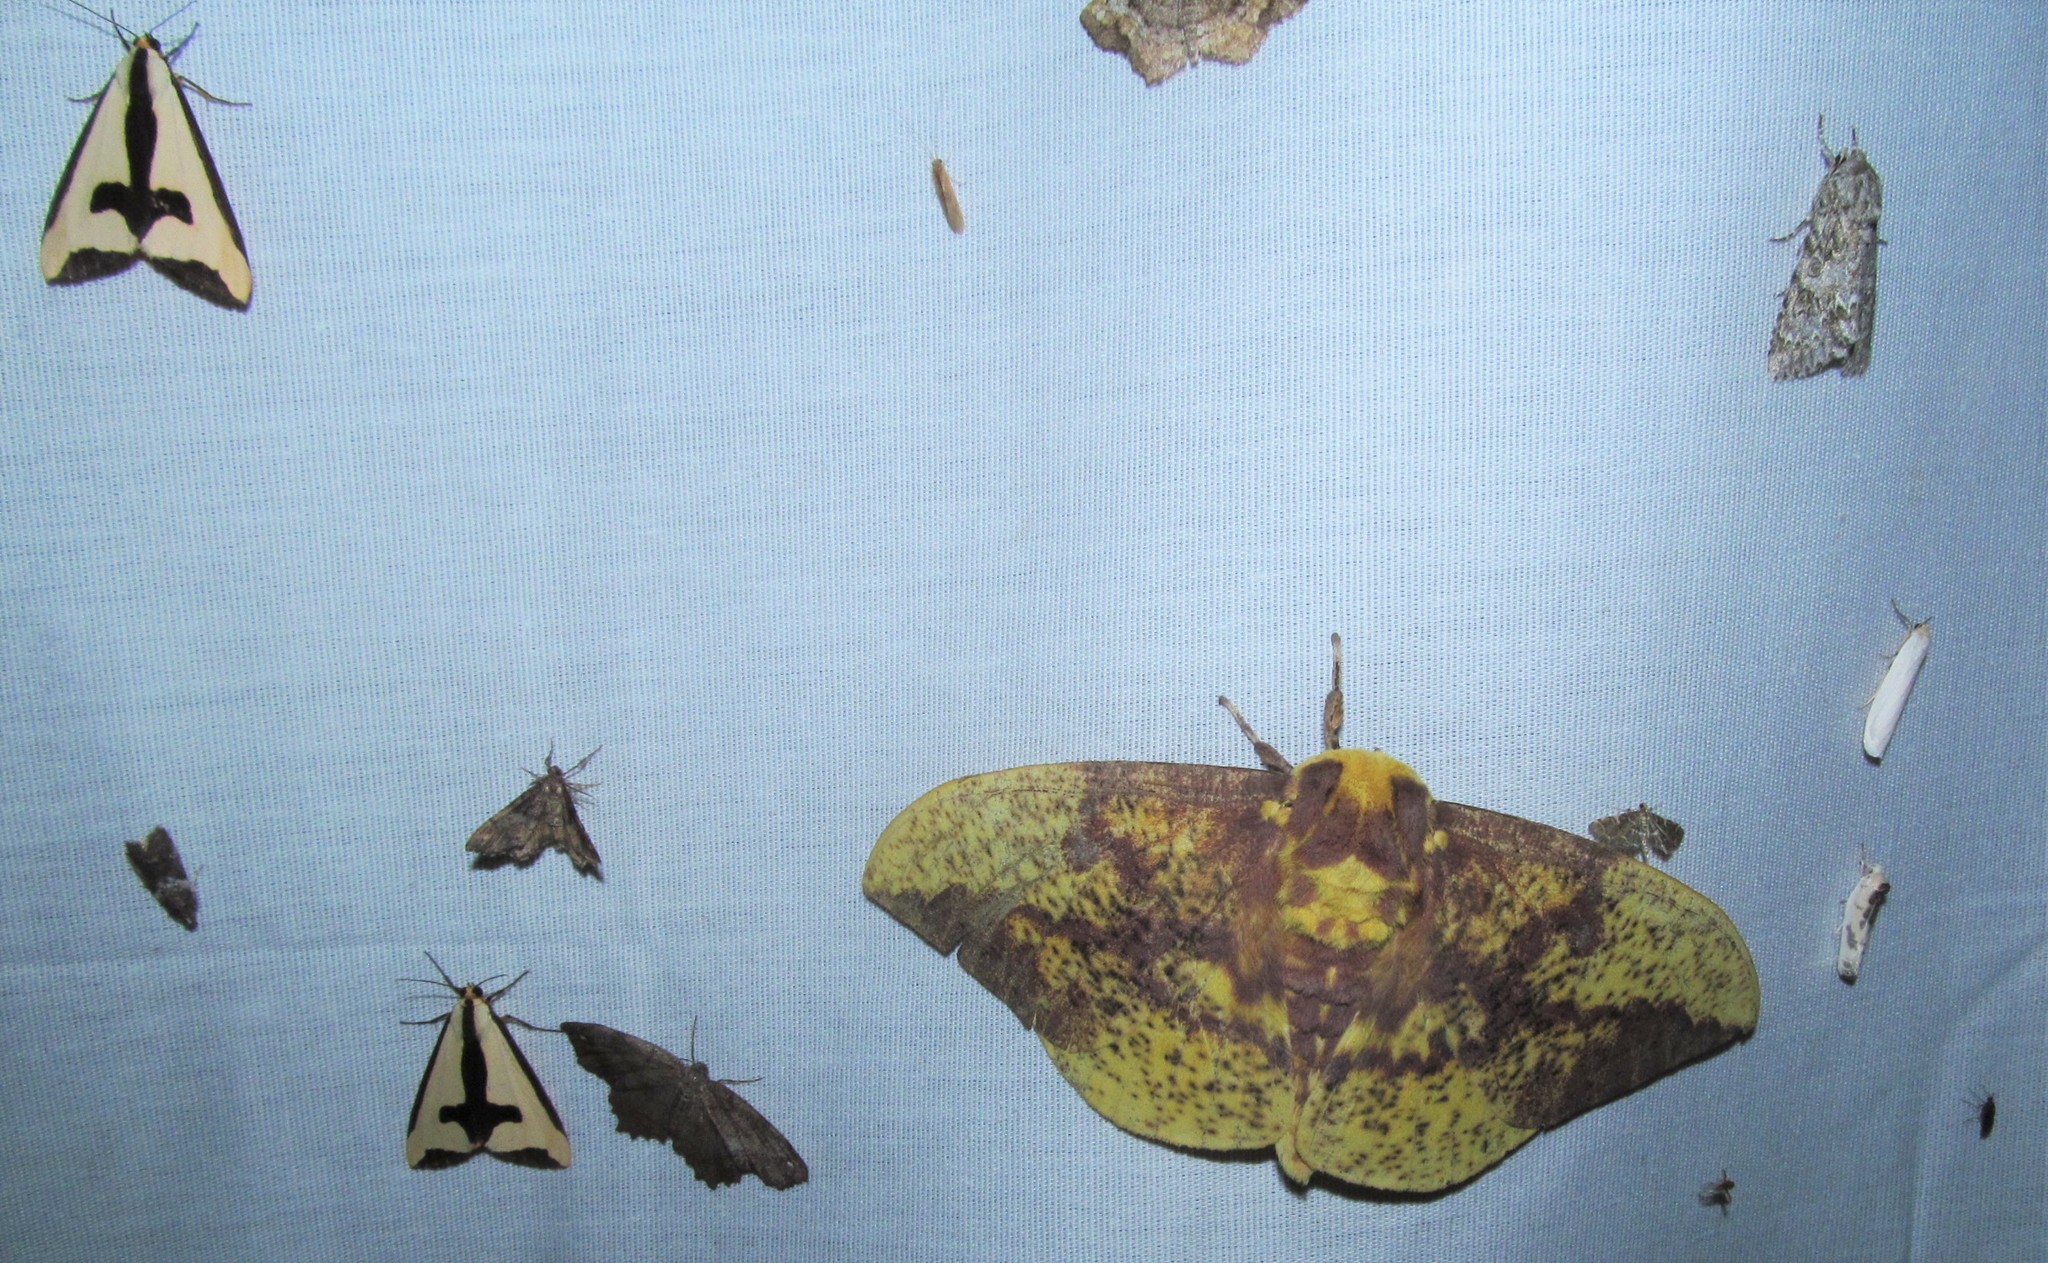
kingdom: Animalia
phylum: Arthropoda
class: Insecta
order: Lepidoptera
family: Saturniidae
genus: Eacles
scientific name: Eacles imperialis
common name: Imperial moth
